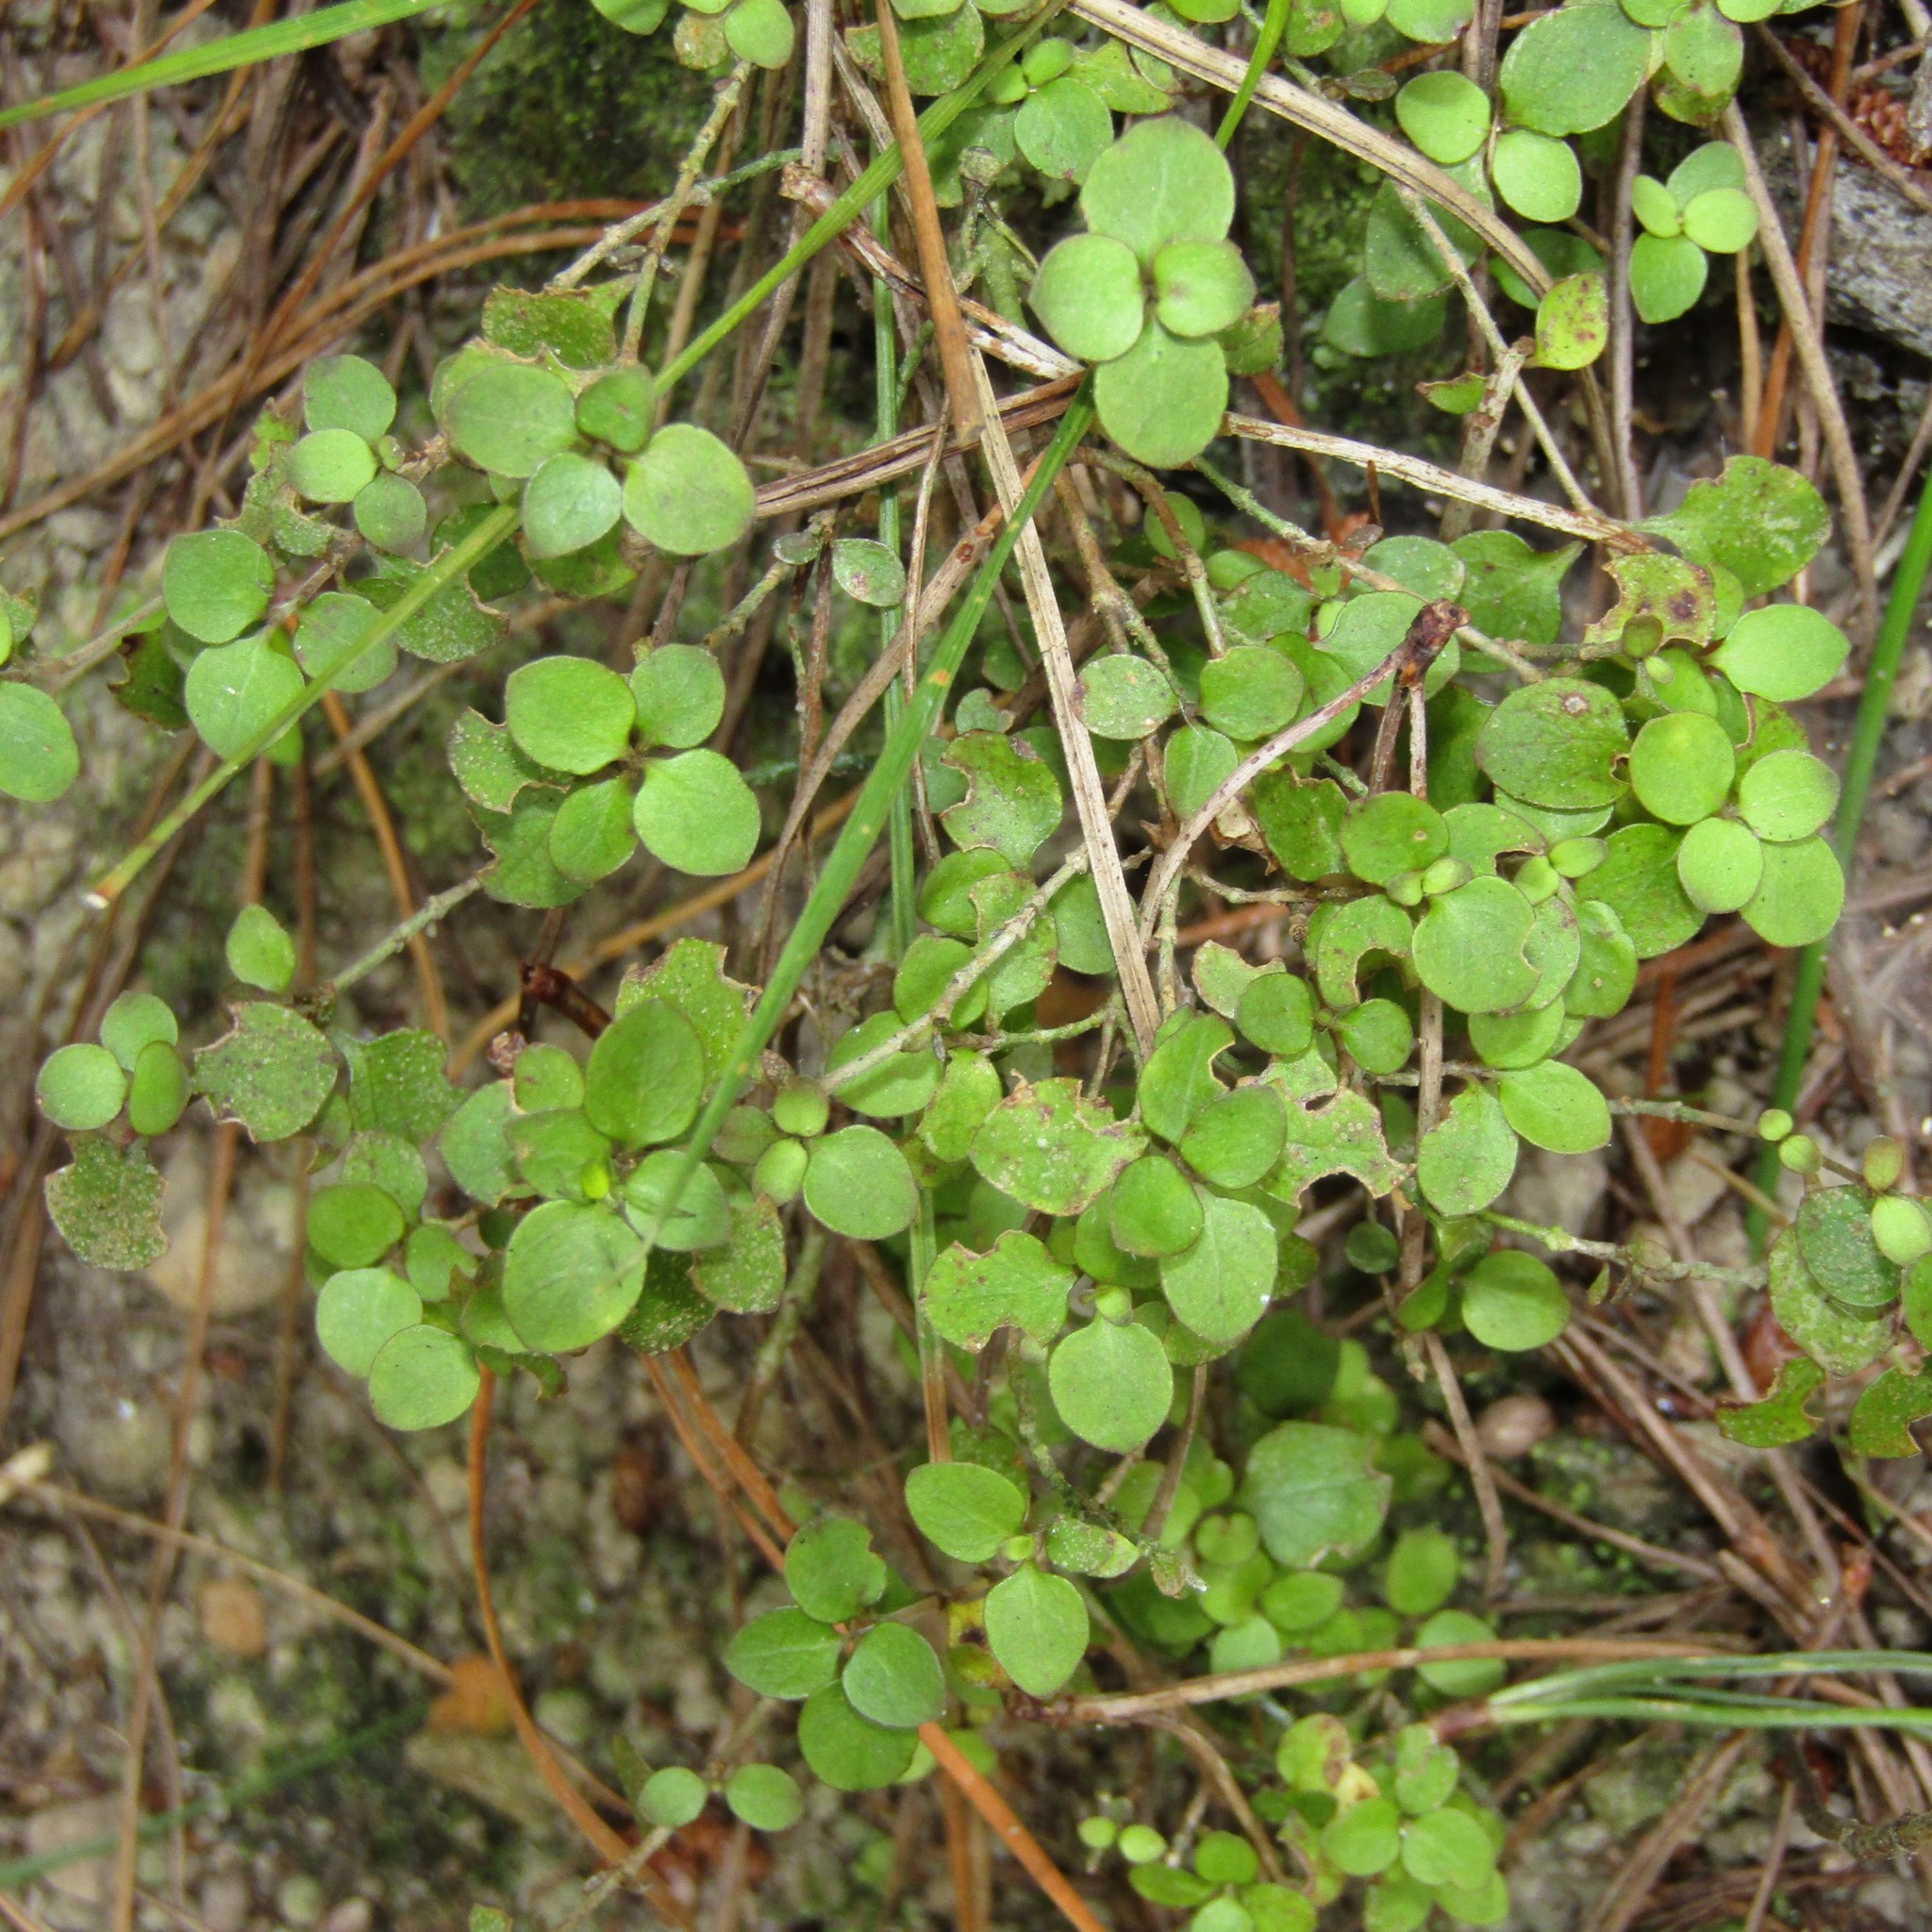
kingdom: Plantae
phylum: Tracheophyta
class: Magnoliopsida
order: Gentianales
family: Rubiaceae
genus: Coprosma
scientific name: Coprosma rhamnoides
